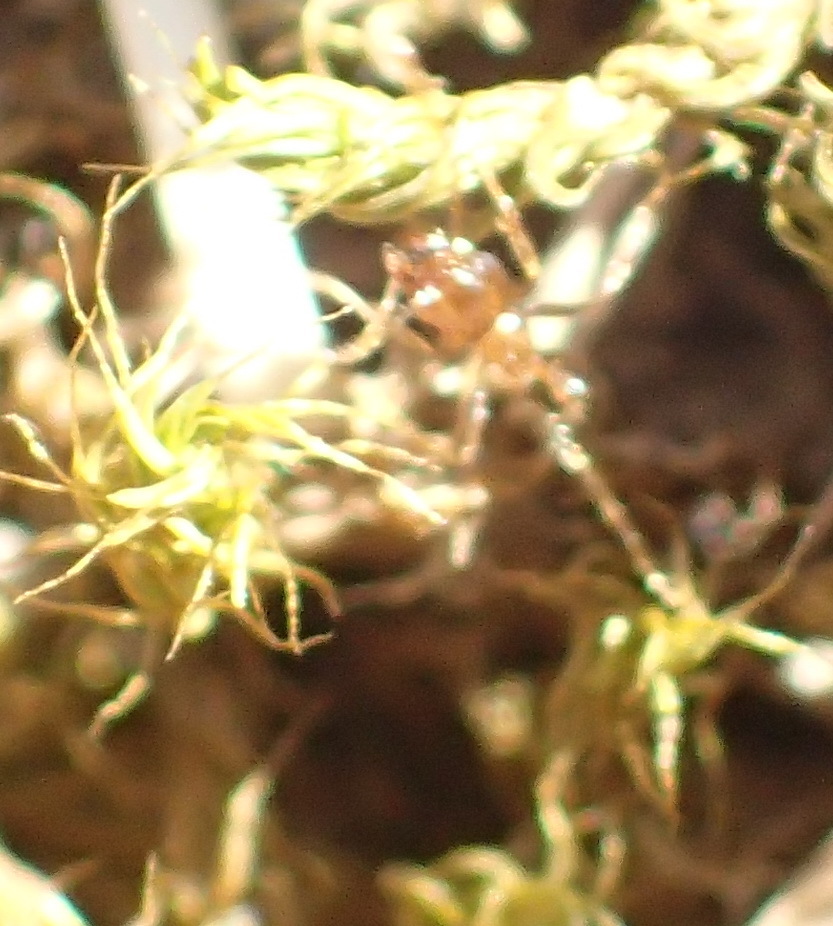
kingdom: Animalia
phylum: Arthropoda
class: Insecta
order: Hymenoptera
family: Formicidae
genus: Pheidole
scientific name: Pheidole megacephala
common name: Bigheaded ant
